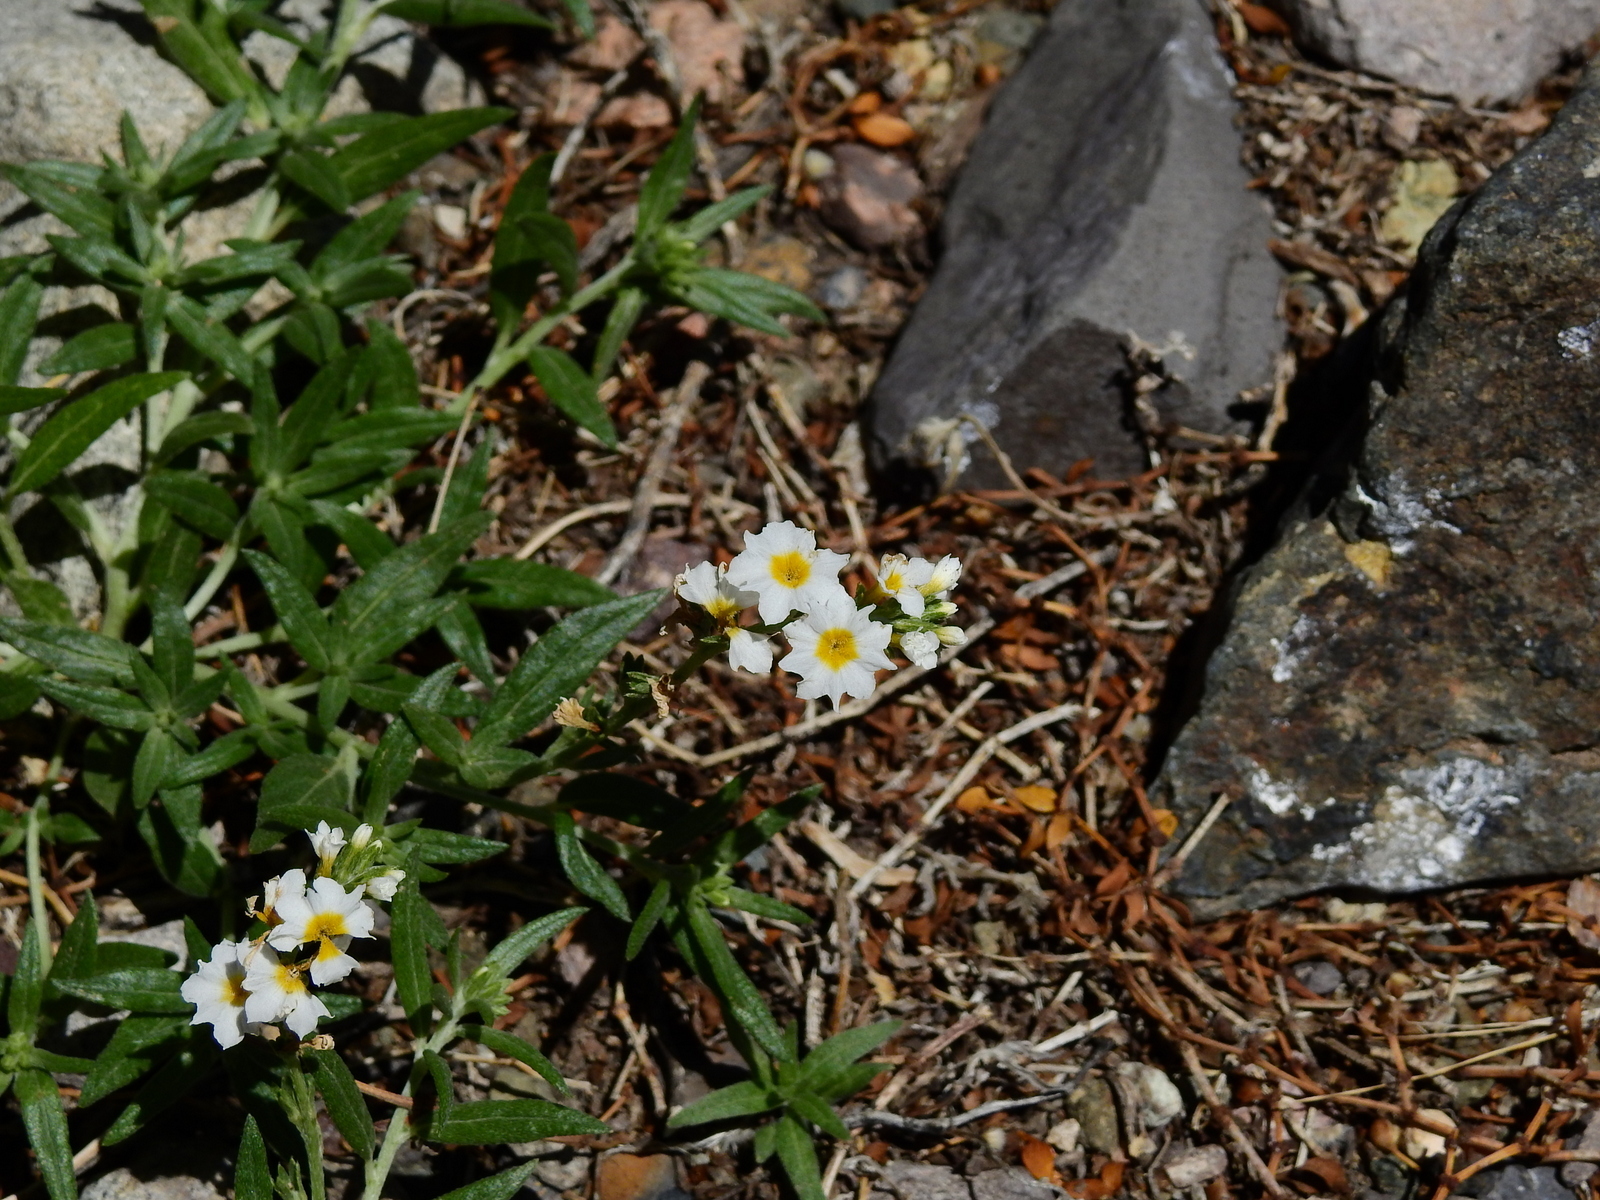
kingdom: Plantae
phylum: Tracheophyta
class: Magnoliopsida
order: Boraginales
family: Heliotropiaceae
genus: Euploca
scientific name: Euploca mendocina
